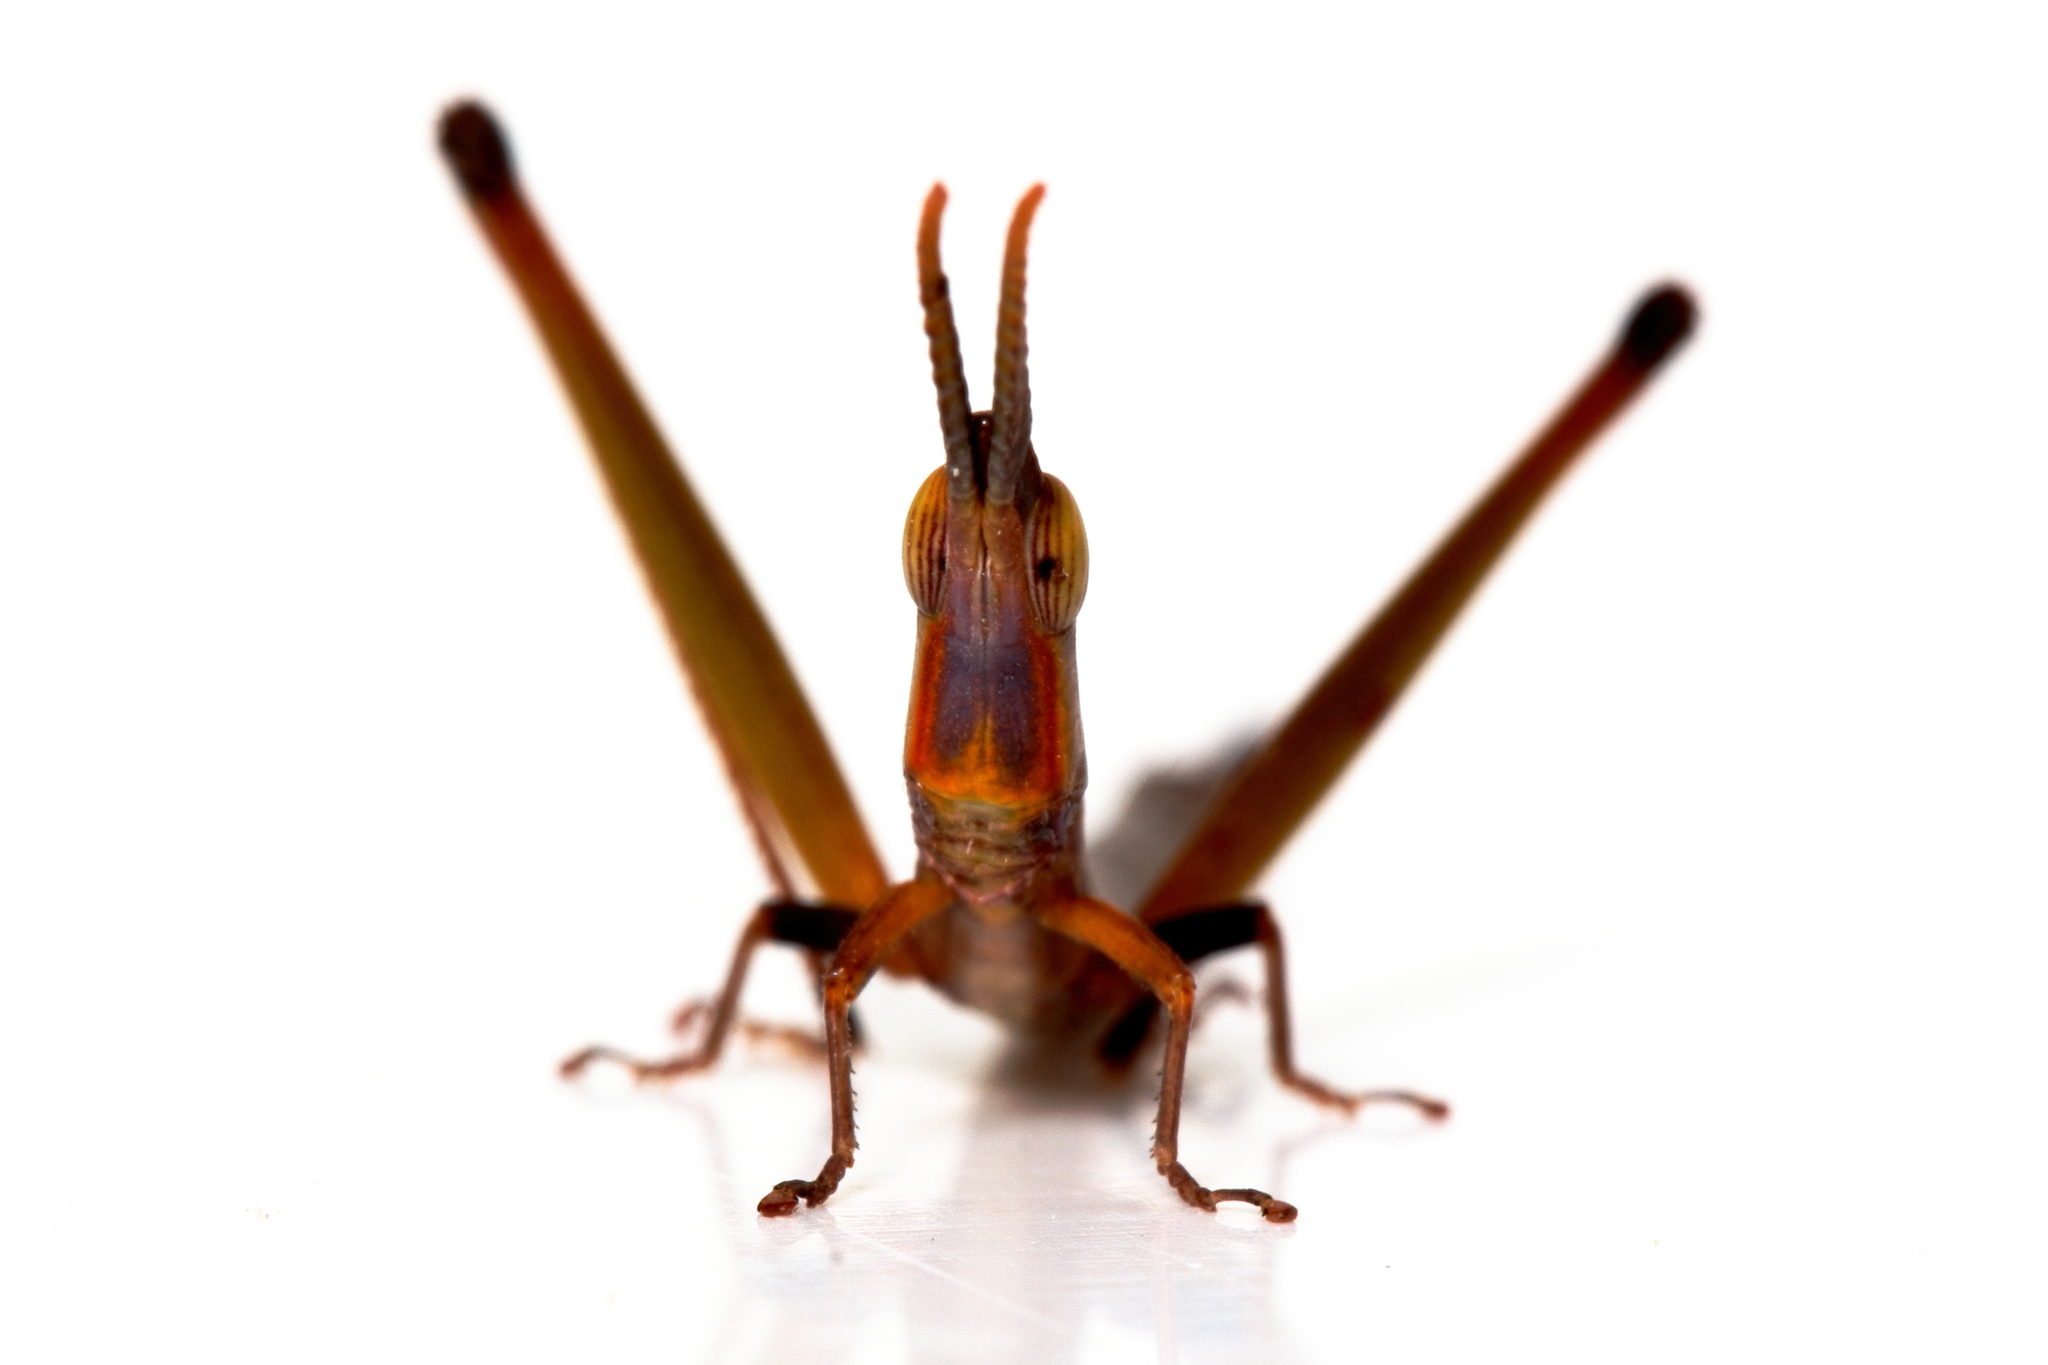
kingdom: Animalia
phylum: Arthropoda
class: Insecta
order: Orthoptera
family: Morabidae
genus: Warramaba
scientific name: Warramaba whitei
